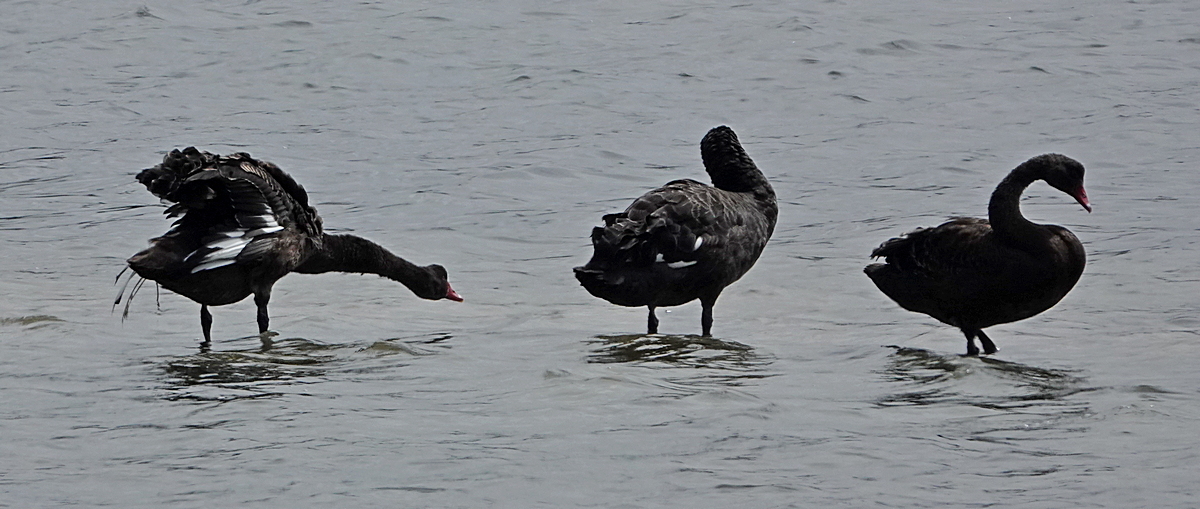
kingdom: Animalia
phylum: Chordata
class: Aves
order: Anseriformes
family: Anatidae
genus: Cygnus
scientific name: Cygnus atratus
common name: Black swan
